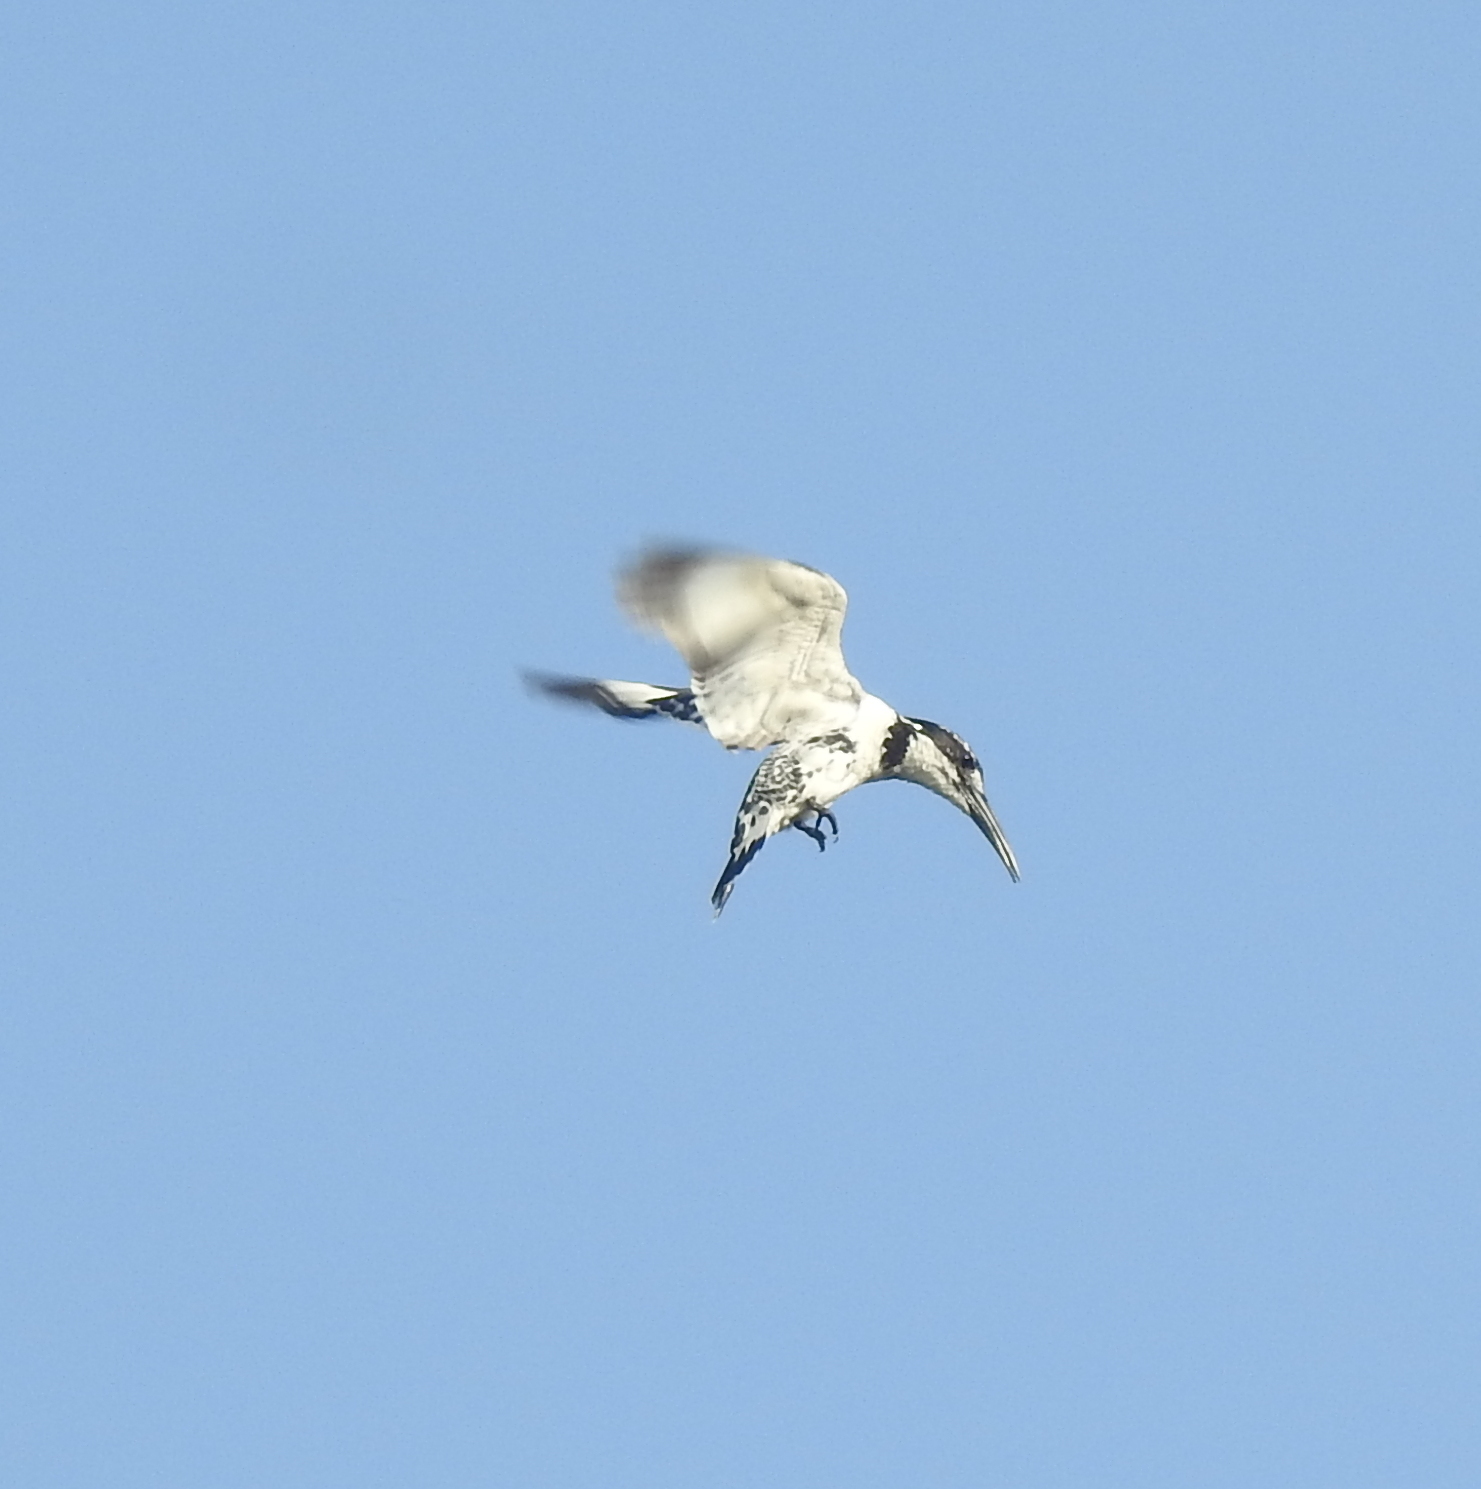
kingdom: Animalia
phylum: Chordata
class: Aves
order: Coraciiformes
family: Alcedinidae
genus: Ceryle
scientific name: Ceryle rudis
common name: Pied kingfisher
